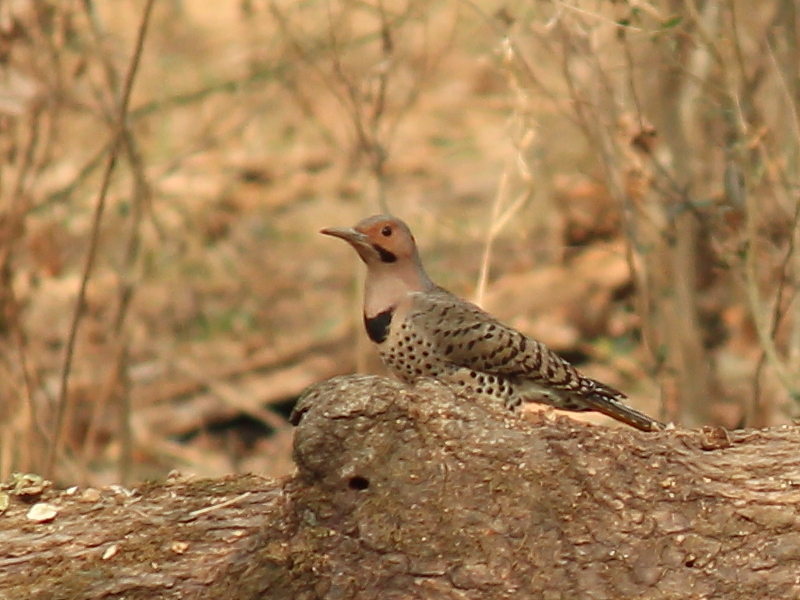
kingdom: Animalia
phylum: Chordata
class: Aves
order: Piciformes
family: Picidae
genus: Colaptes
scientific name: Colaptes auratus
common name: Northern flicker
